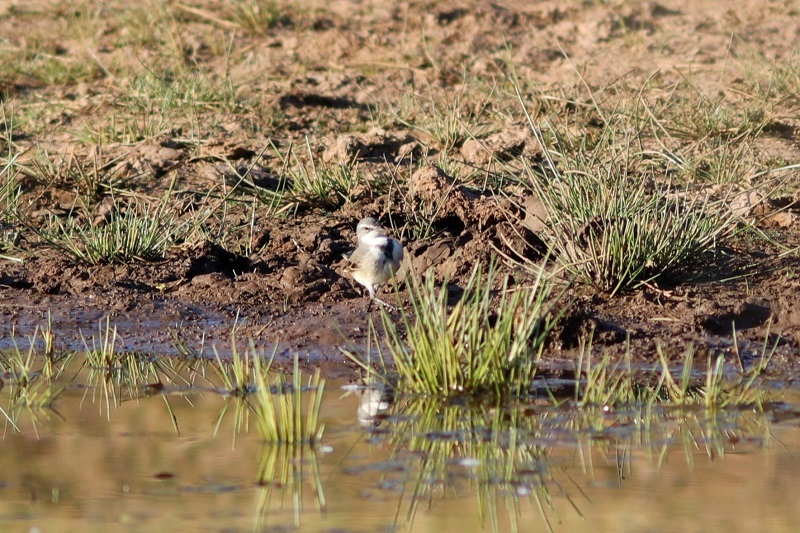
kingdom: Animalia
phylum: Chordata
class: Aves
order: Passeriformes
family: Motacillidae
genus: Motacilla
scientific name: Motacilla capensis
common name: Cape wagtail
